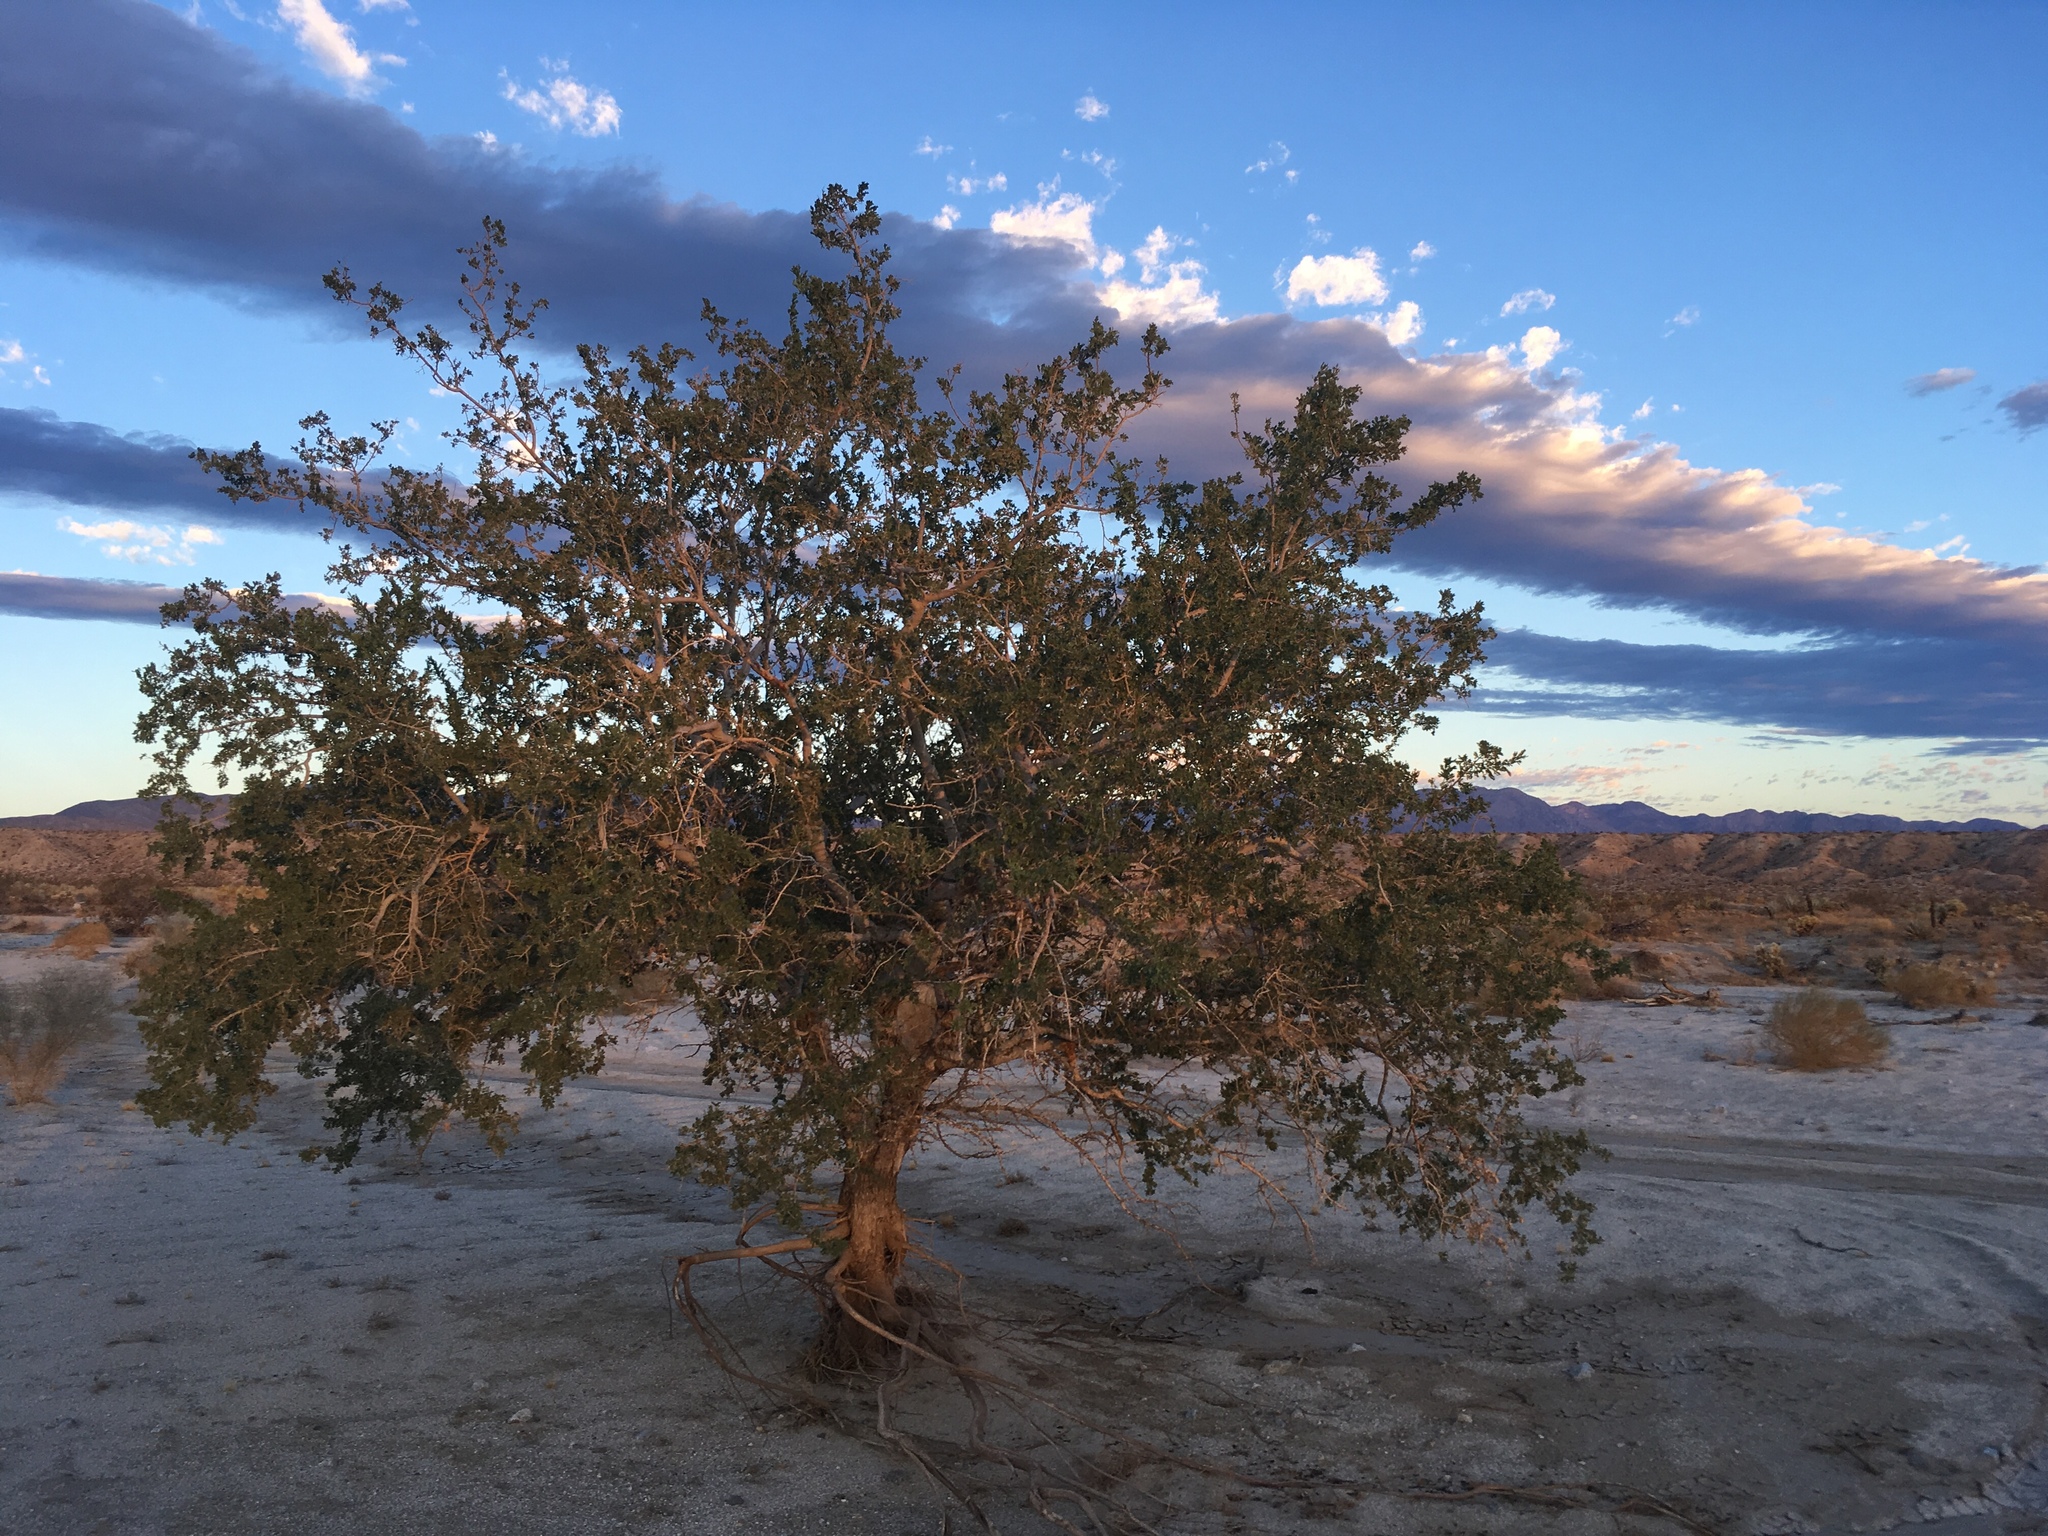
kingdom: Plantae
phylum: Tracheophyta
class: Magnoliopsida
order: Fabales
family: Fabaceae
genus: Olneya
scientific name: Olneya tesota
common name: Desert ironwood
